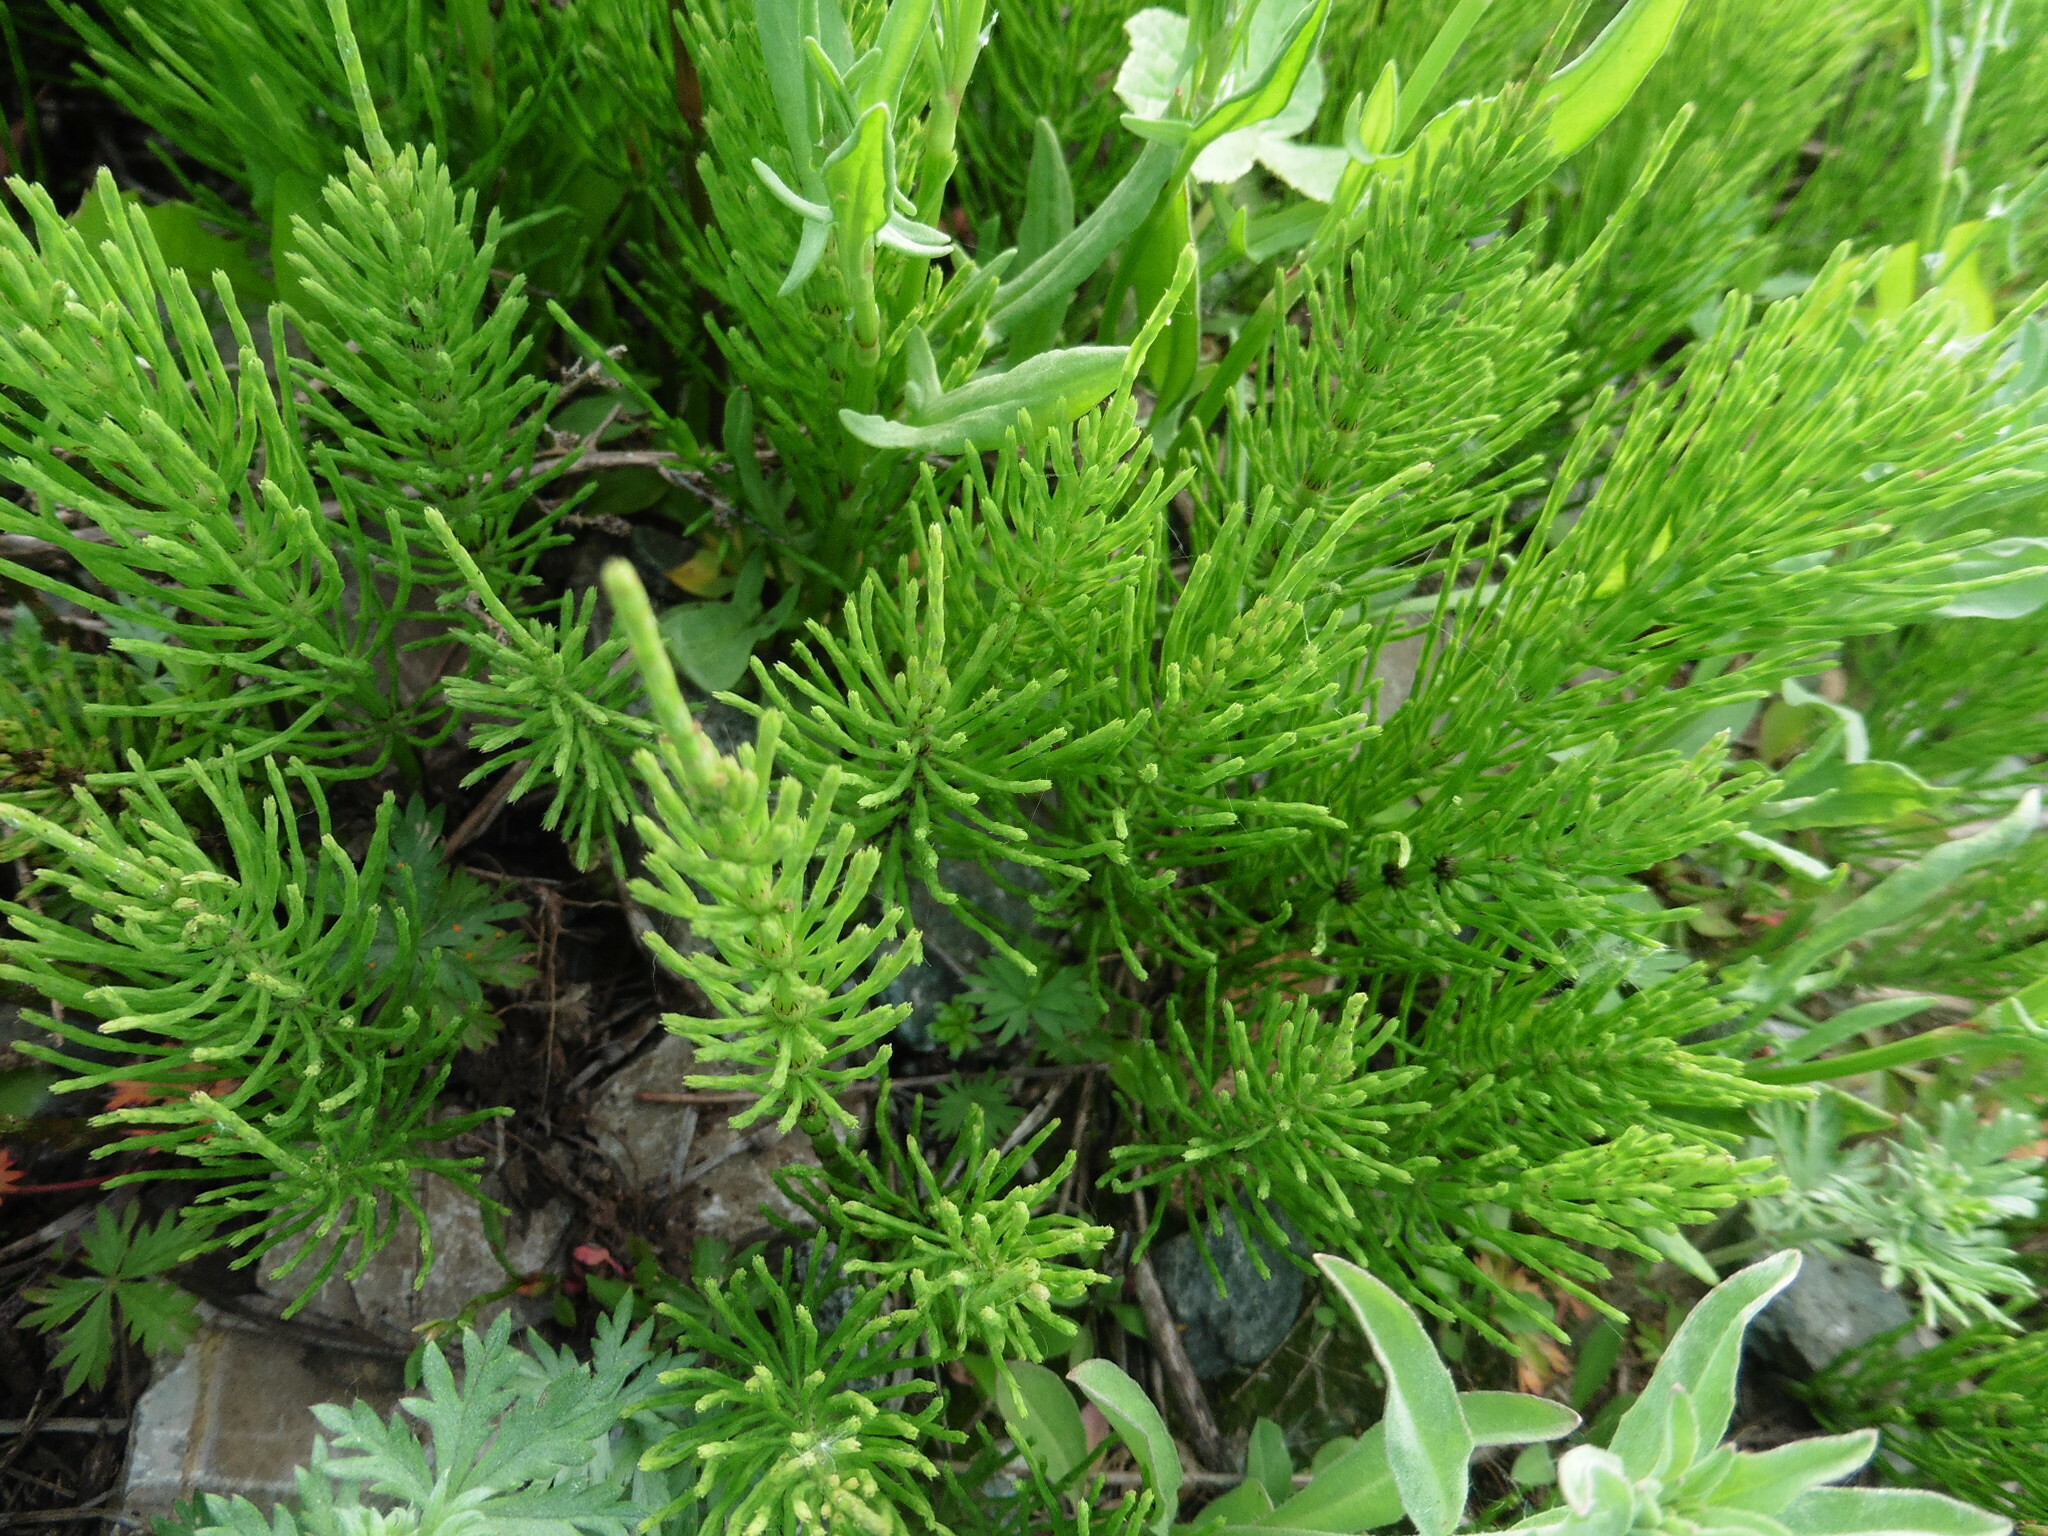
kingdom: Plantae
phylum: Tracheophyta
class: Polypodiopsida
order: Equisetales
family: Equisetaceae
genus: Equisetum
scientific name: Equisetum arvense
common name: Field horsetail
